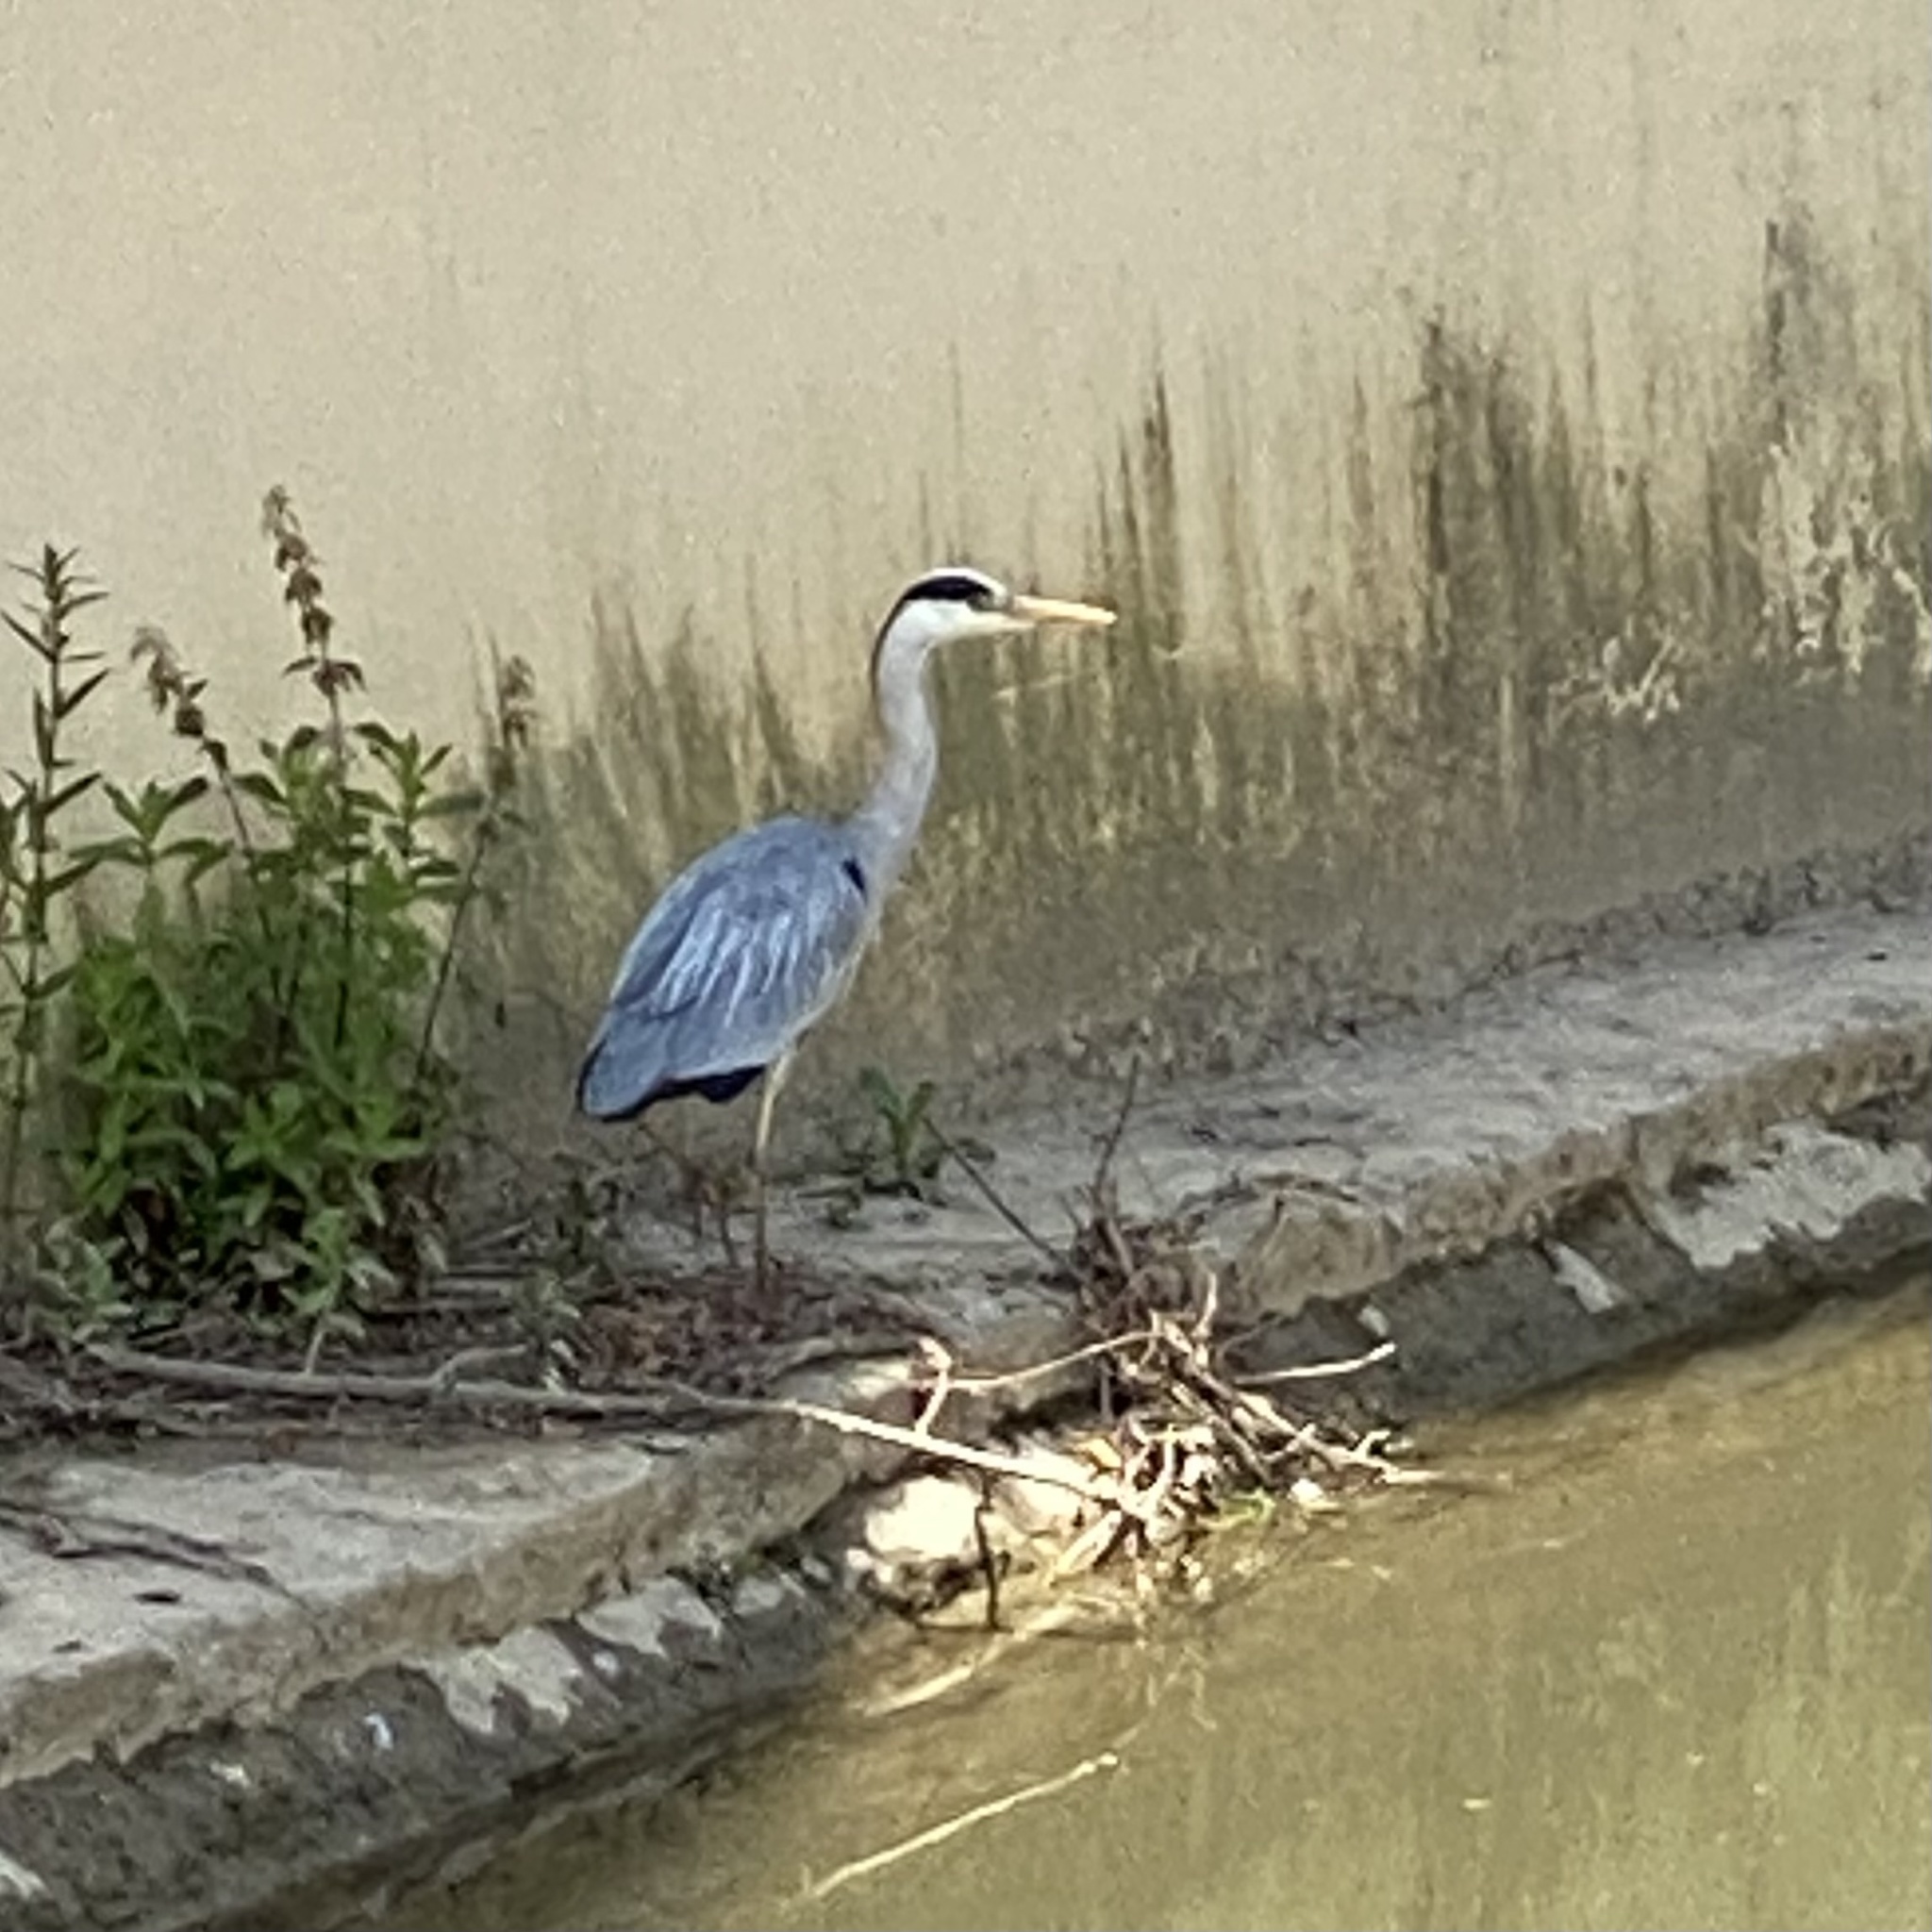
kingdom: Animalia
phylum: Chordata
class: Aves
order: Pelecaniformes
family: Ardeidae
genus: Ardea
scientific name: Ardea cinerea
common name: Grey heron
